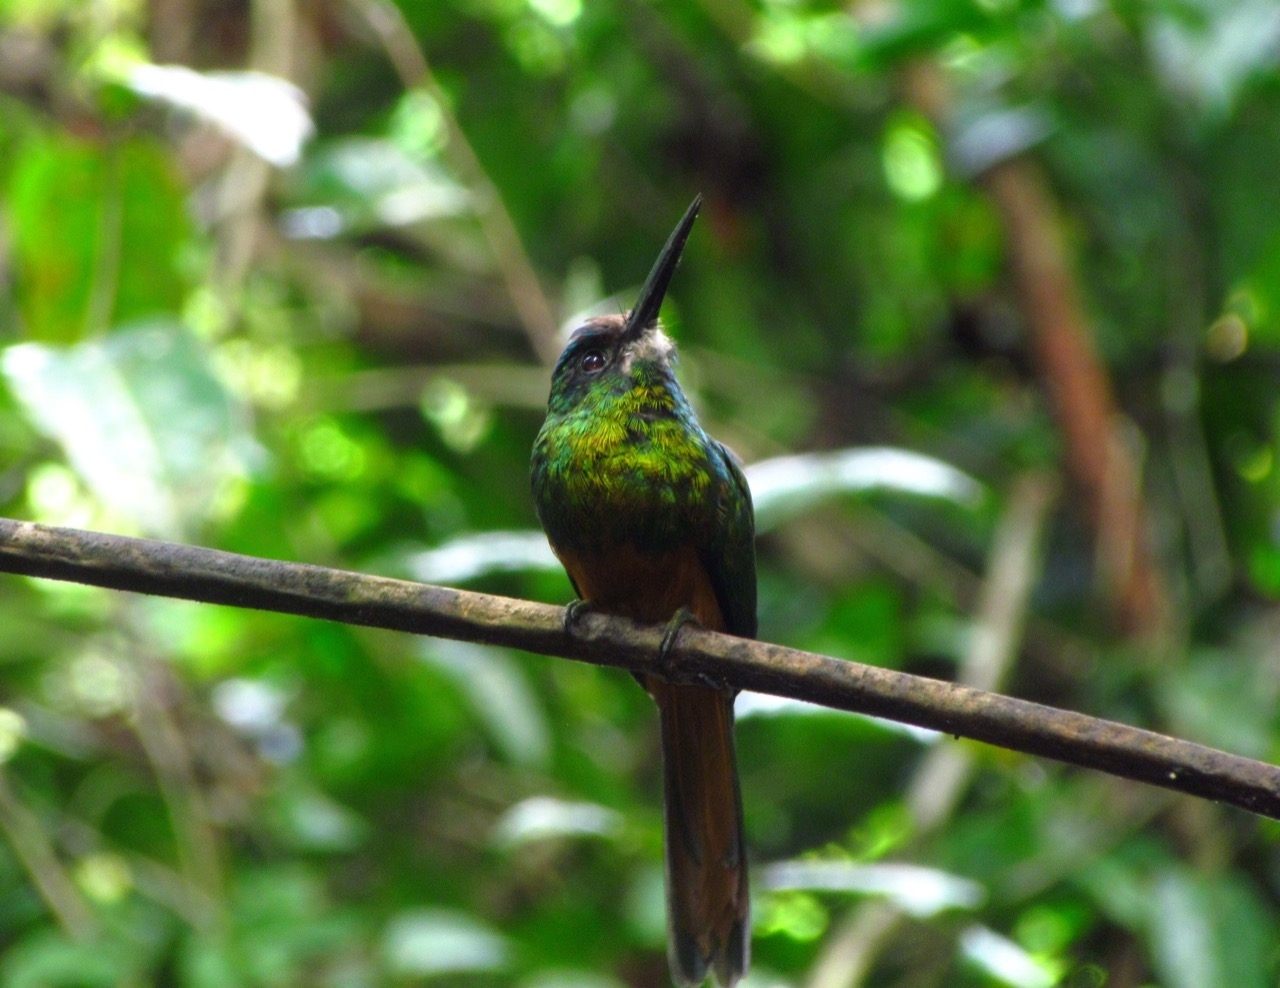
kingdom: Animalia
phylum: Chordata
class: Aves
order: Piciformes
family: Galbulidae
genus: Galbula
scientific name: Galbula tombacea
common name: White-chinned jacamar
